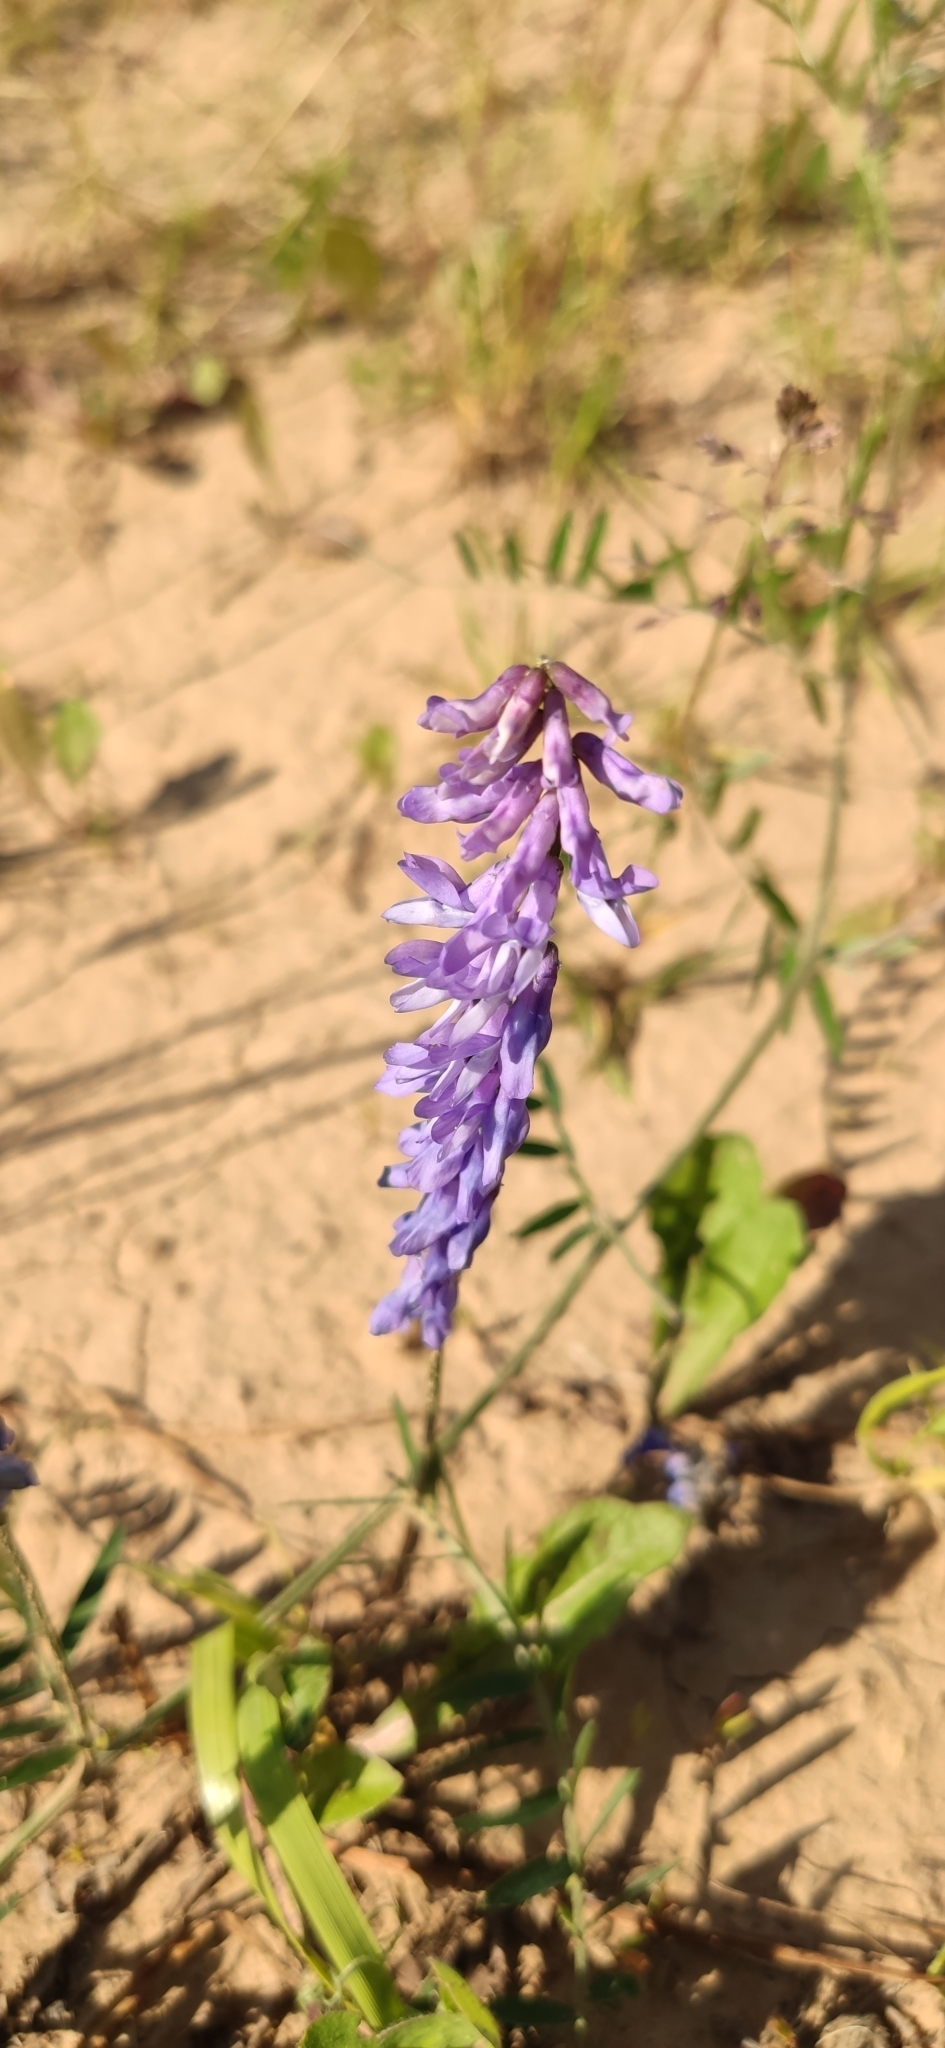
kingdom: Plantae
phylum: Tracheophyta
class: Magnoliopsida
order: Fabales
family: Fabaceae
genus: Vicia
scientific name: Vicia cracca
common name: Bird vetch
